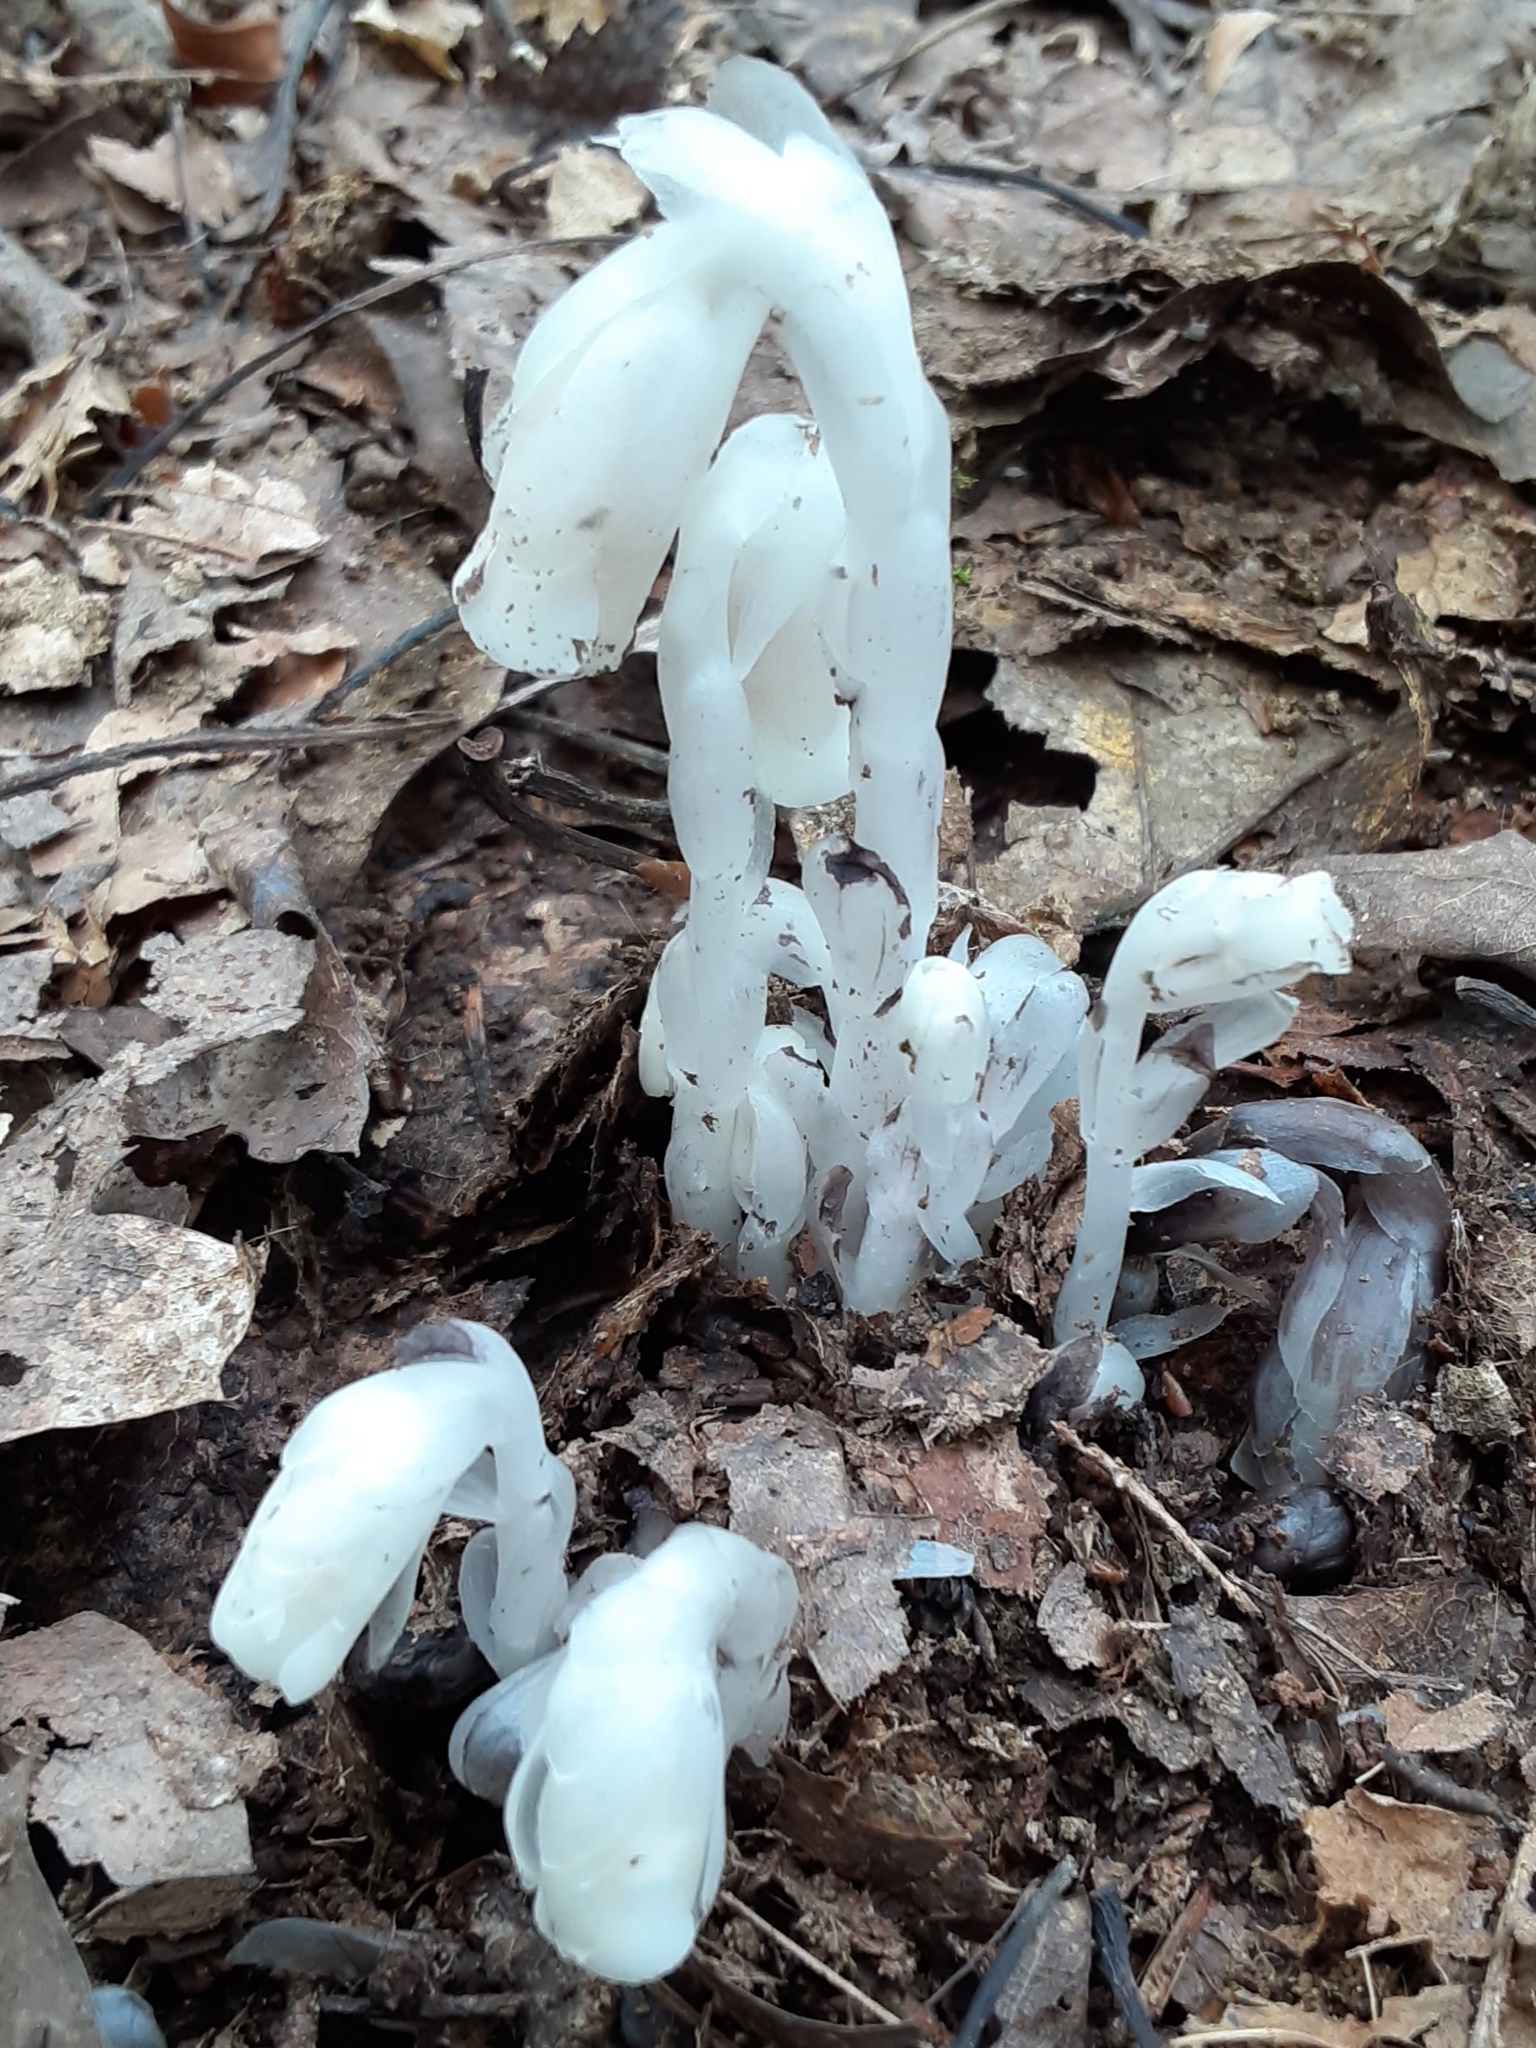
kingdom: Plantae
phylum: Tracheophyta
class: Magnoliopsida
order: Ericales
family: Ericaceae
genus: Monotropa
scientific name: Monotropa uniflora
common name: Convulsion root
